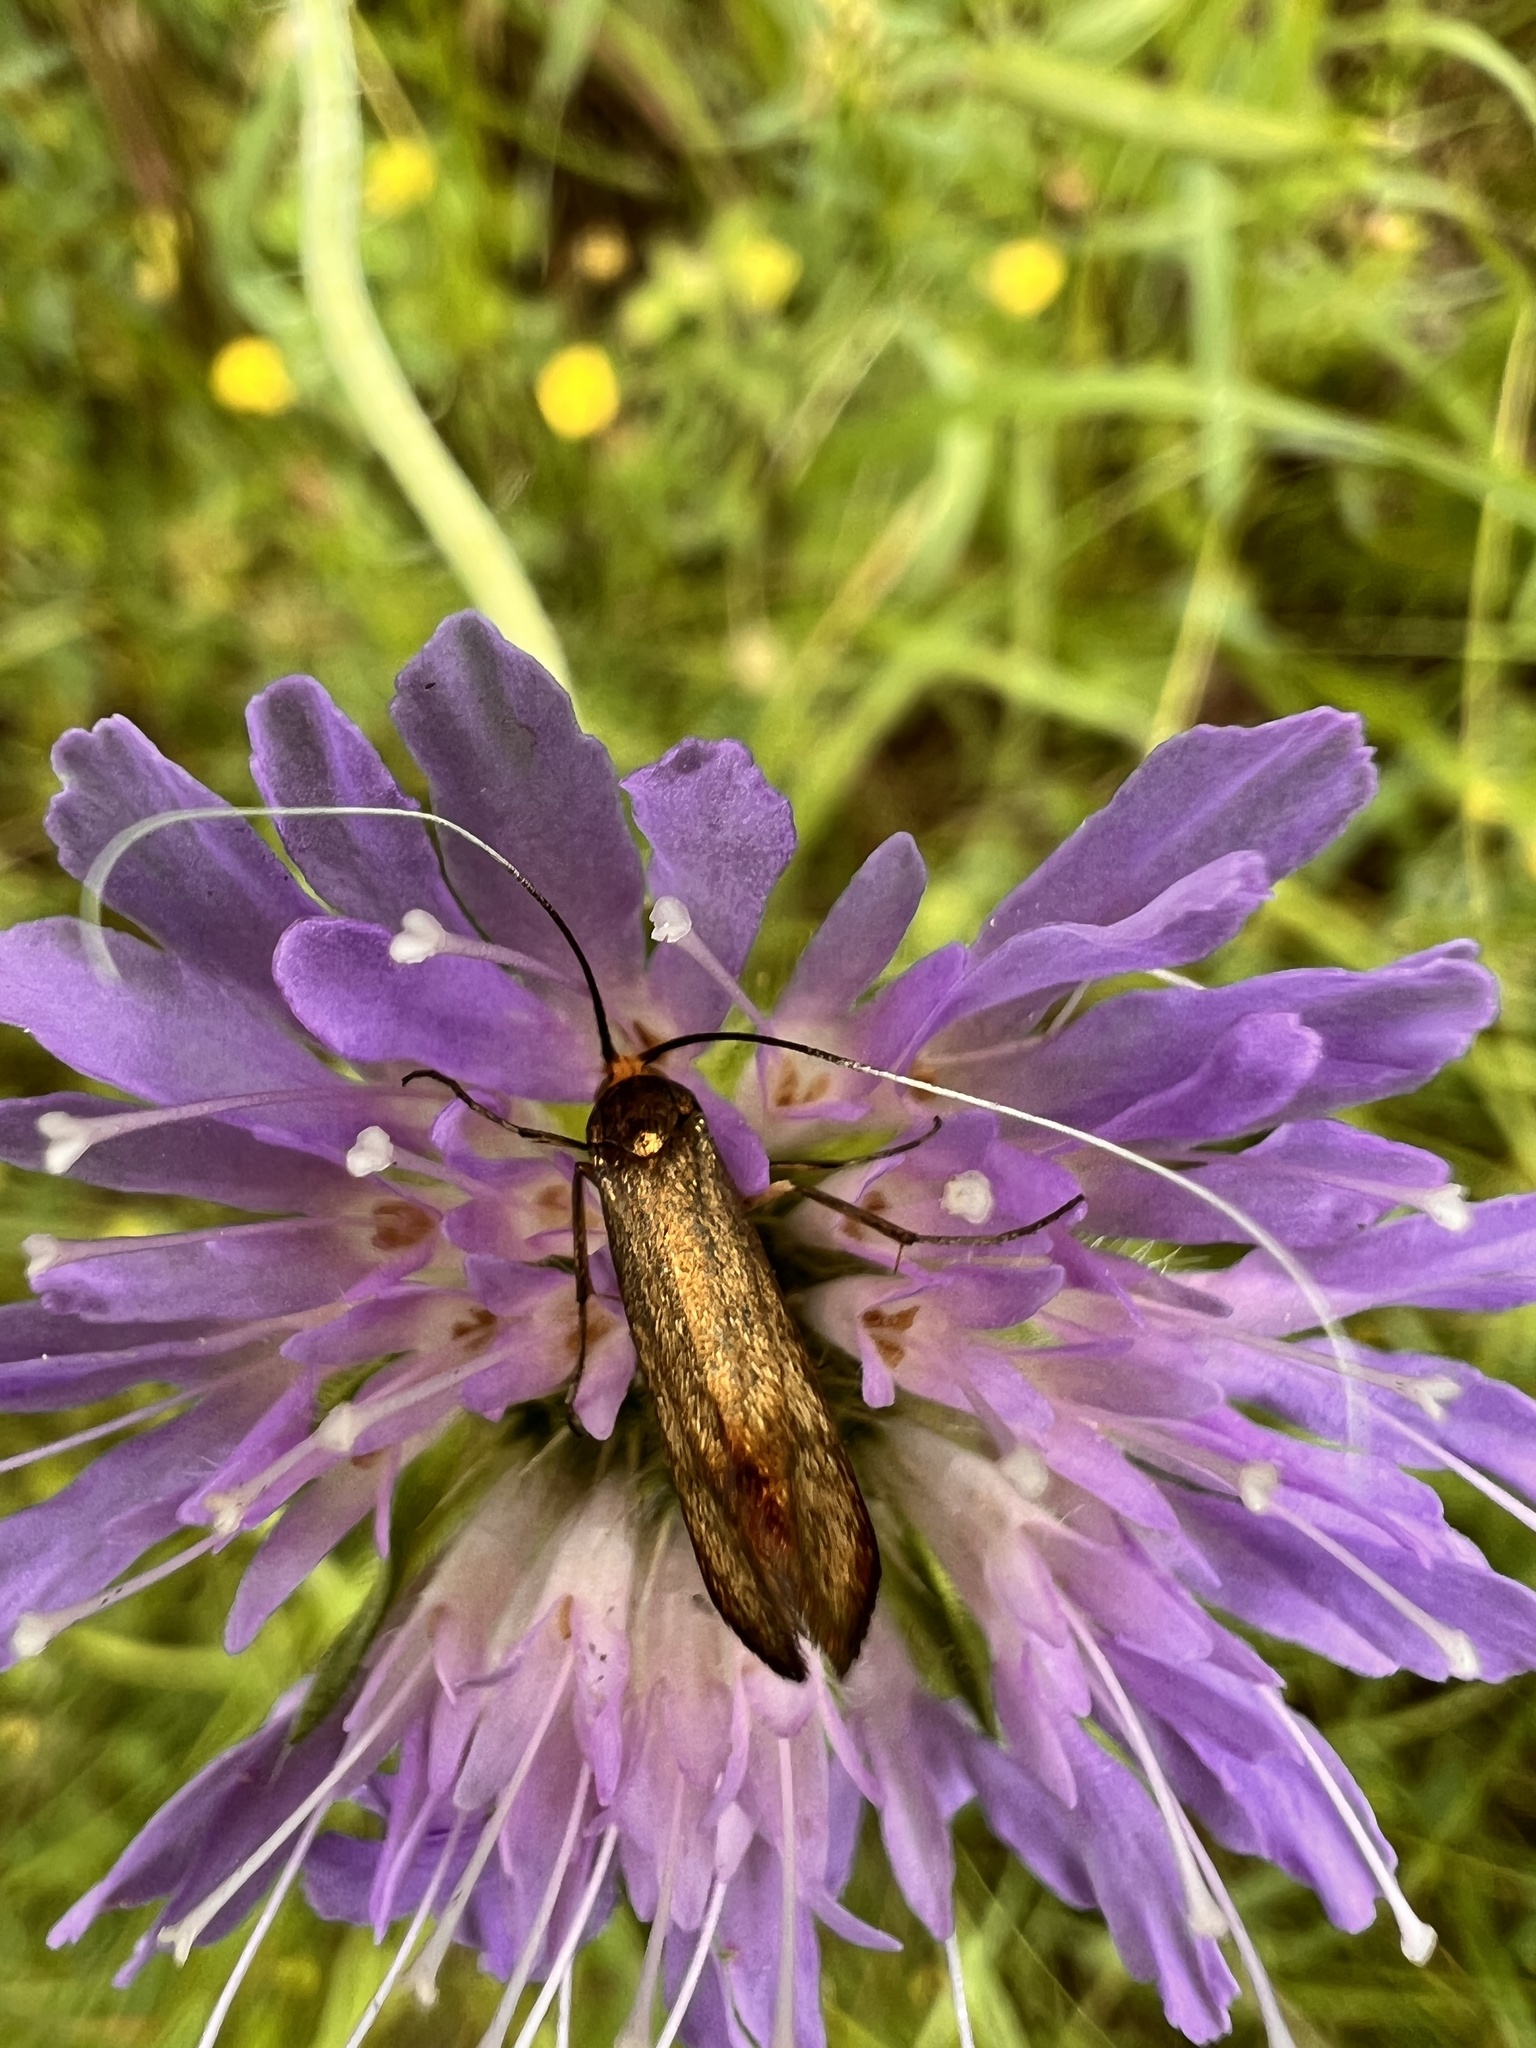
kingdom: Animalia
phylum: Arthropoda
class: Insecta
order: Lepidoptera
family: Adelidae
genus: Nemophora
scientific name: Nemophora metallica
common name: Brassy long-horn
